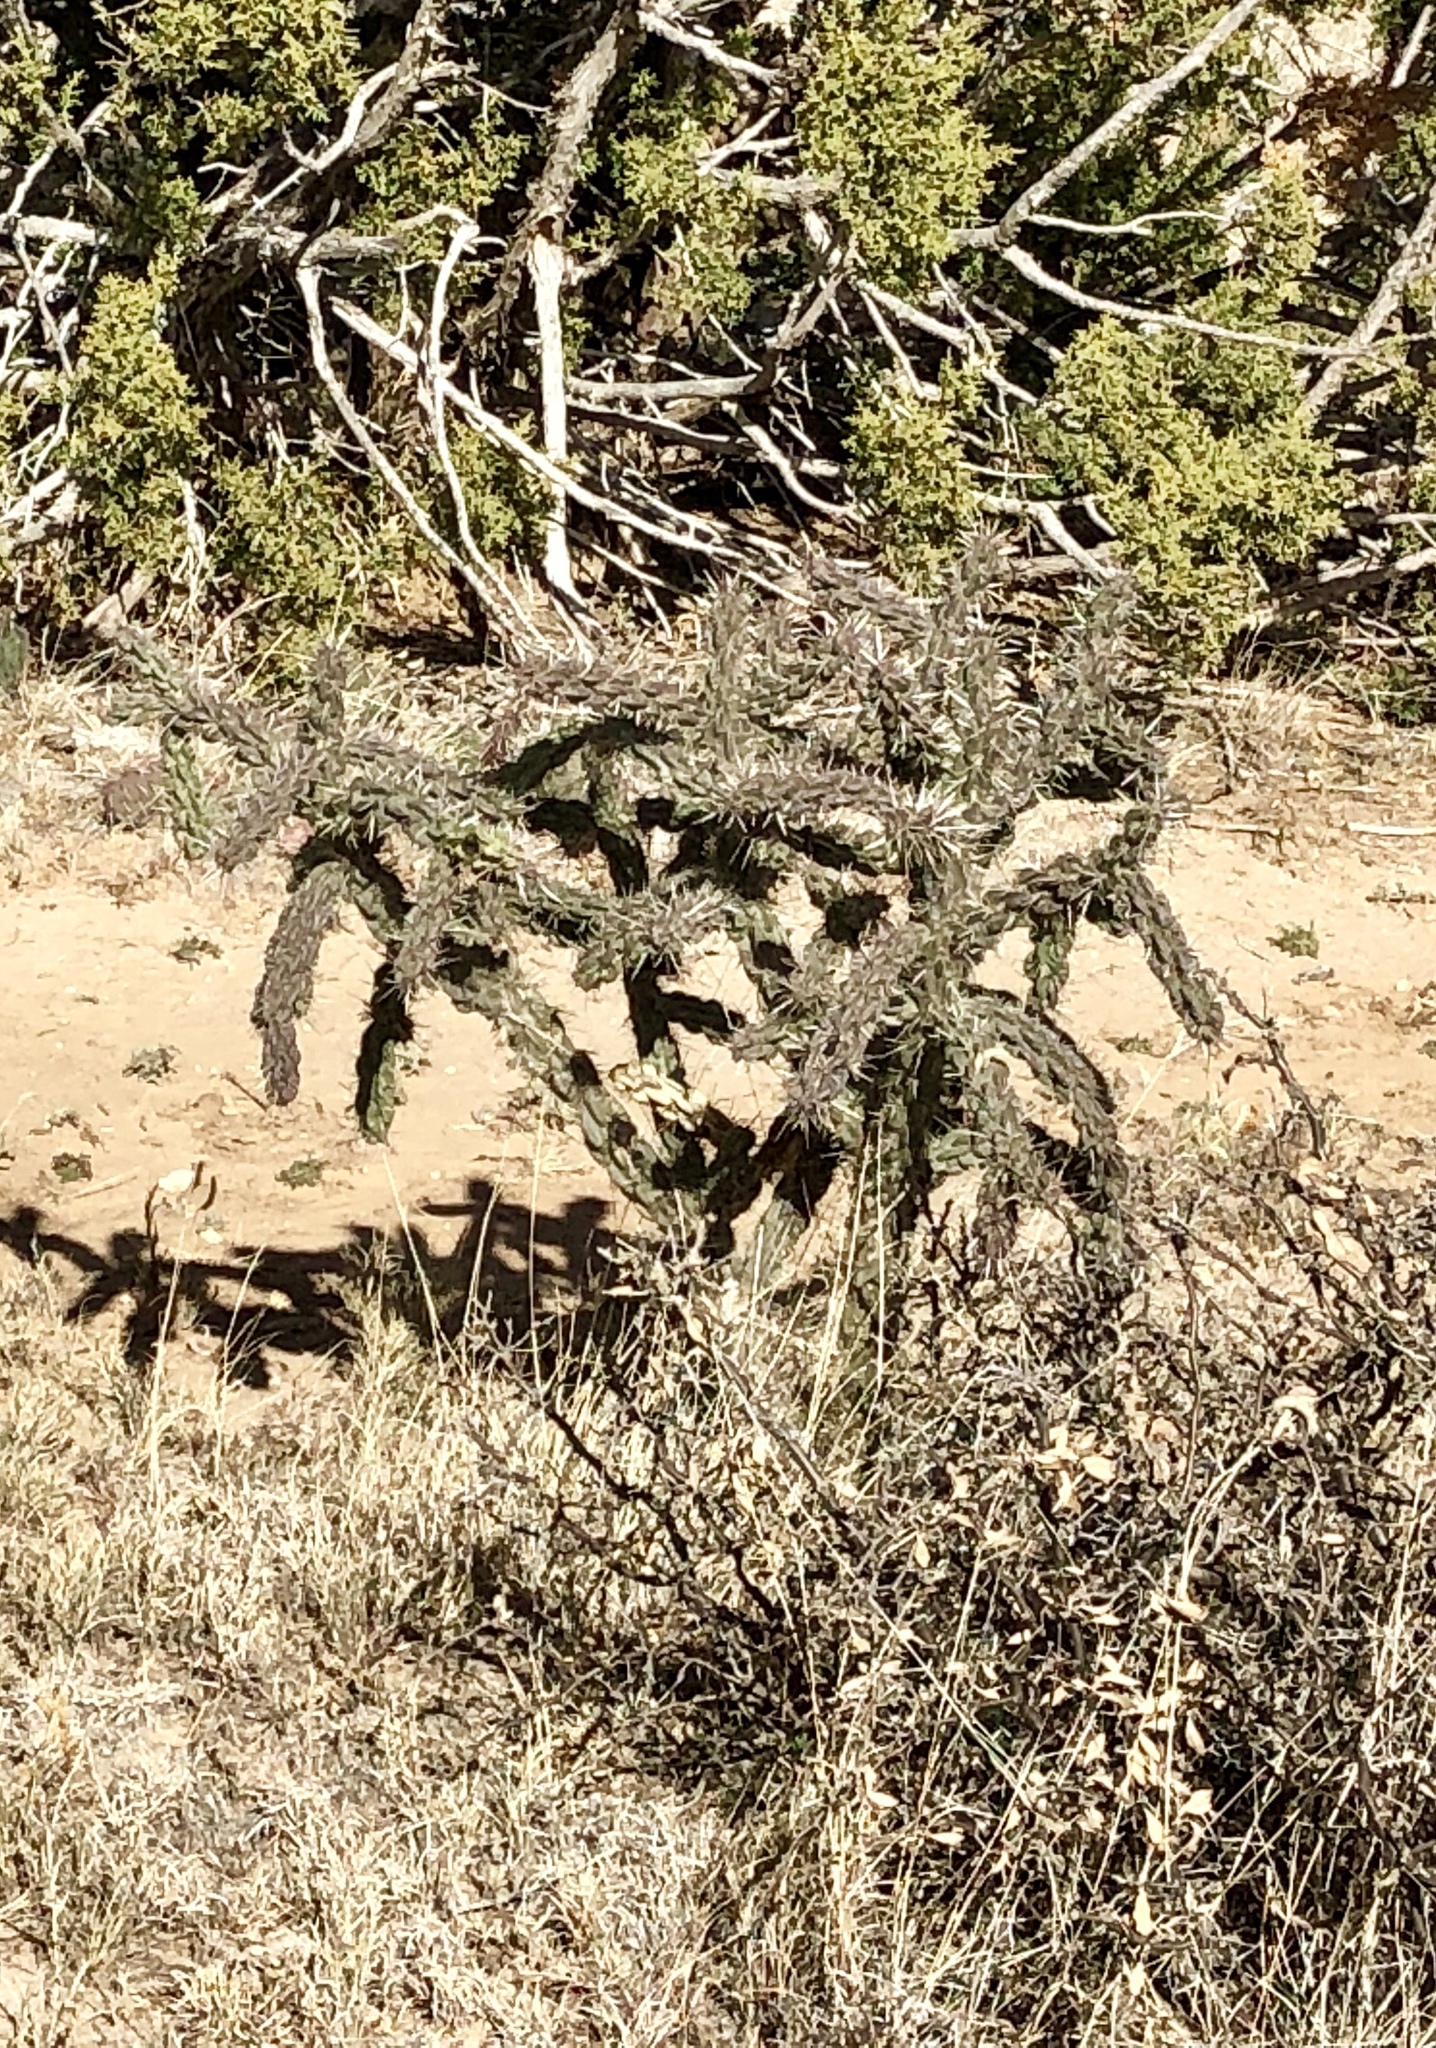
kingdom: Plantae
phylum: Tracheophyta
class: Magnoliopsida
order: Caryophyllales
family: Cactaceae
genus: Cylindropuntia
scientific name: Cylindropuntia imbricata
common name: Candelabrum cactus
